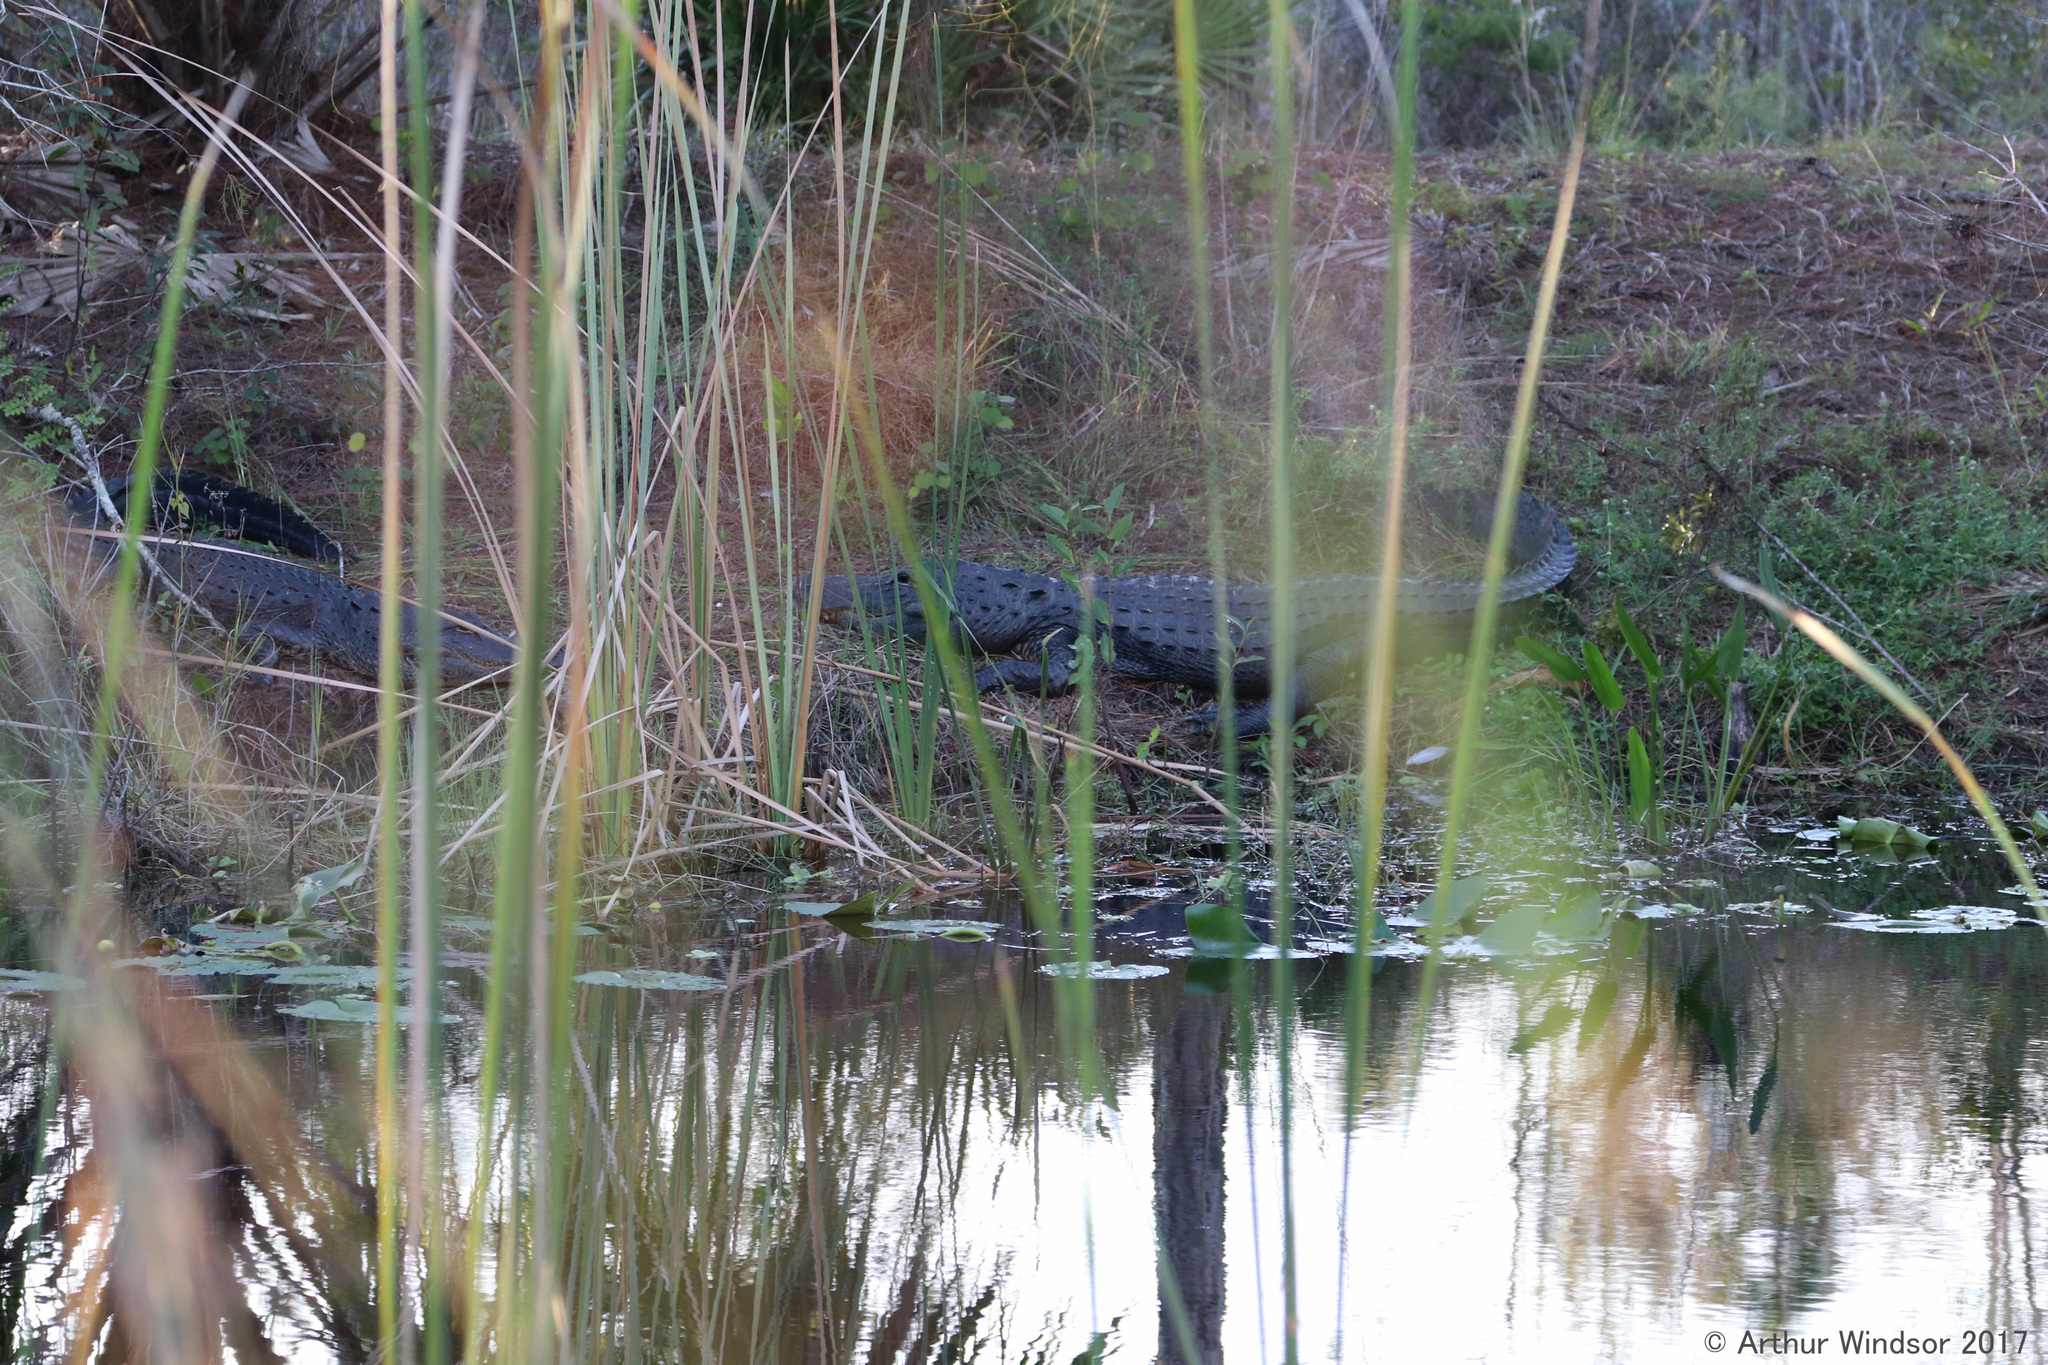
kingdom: Animalia
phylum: Chordata
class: Crocodylia
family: Alligatoridae
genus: Alligator
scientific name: Alligator mississippiensis
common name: American alligator
